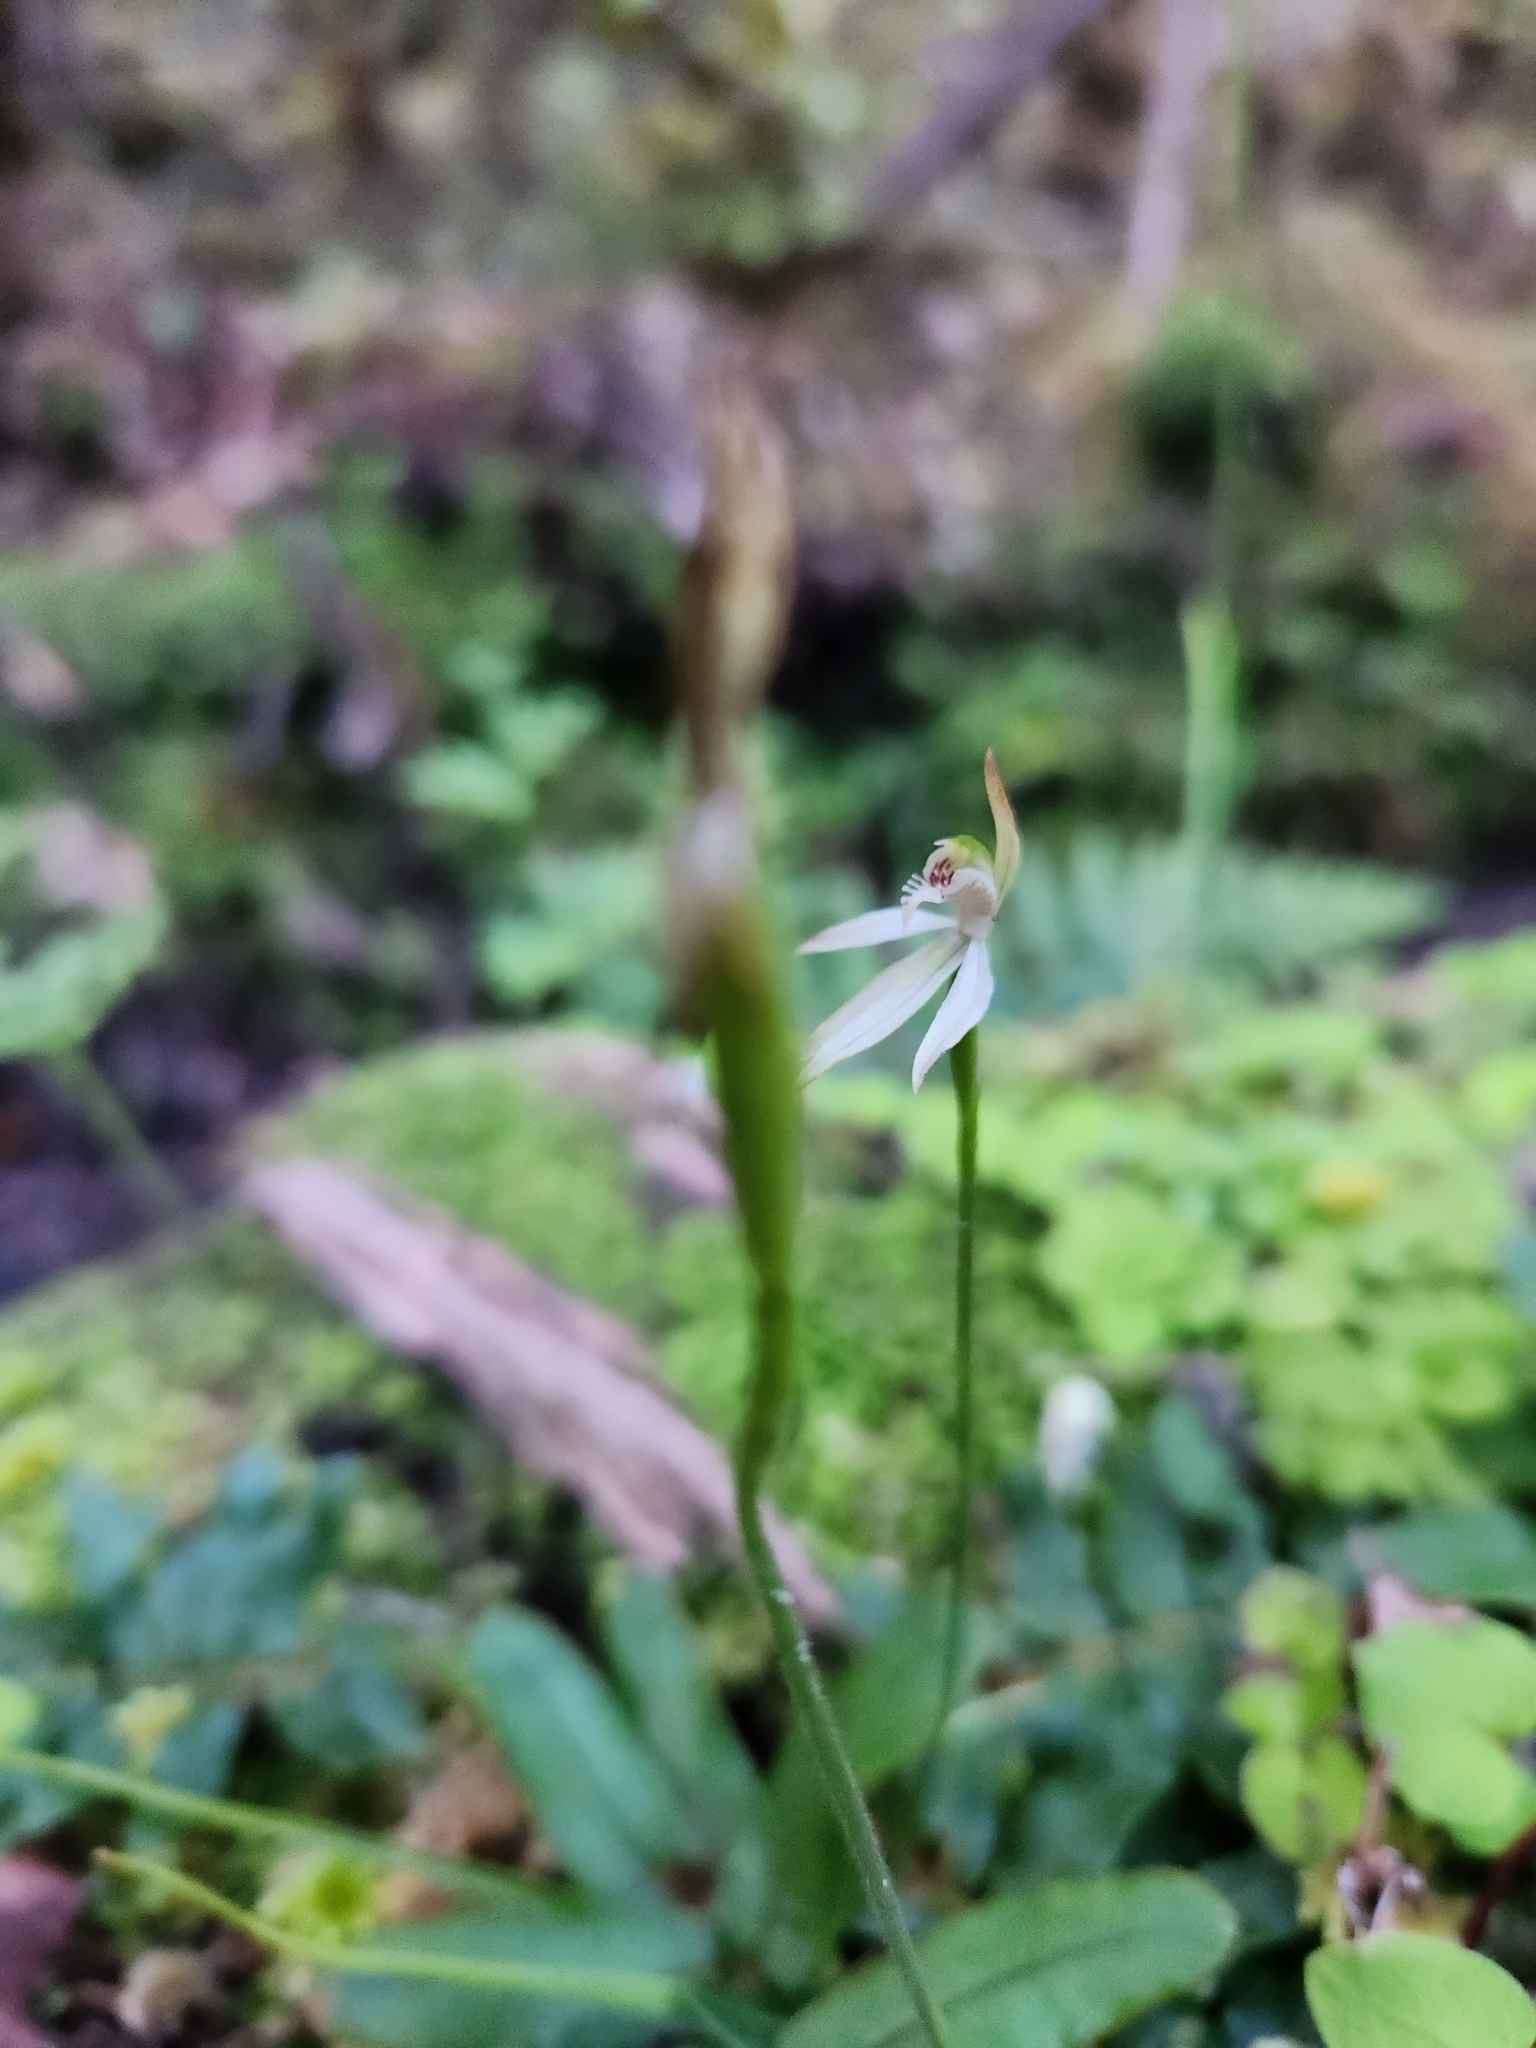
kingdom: Plantae
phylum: Tracheophyta
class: Liliopsida
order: Asparagales
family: Orchidaceae
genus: Caladenia
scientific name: Caladenia chlorostyla
